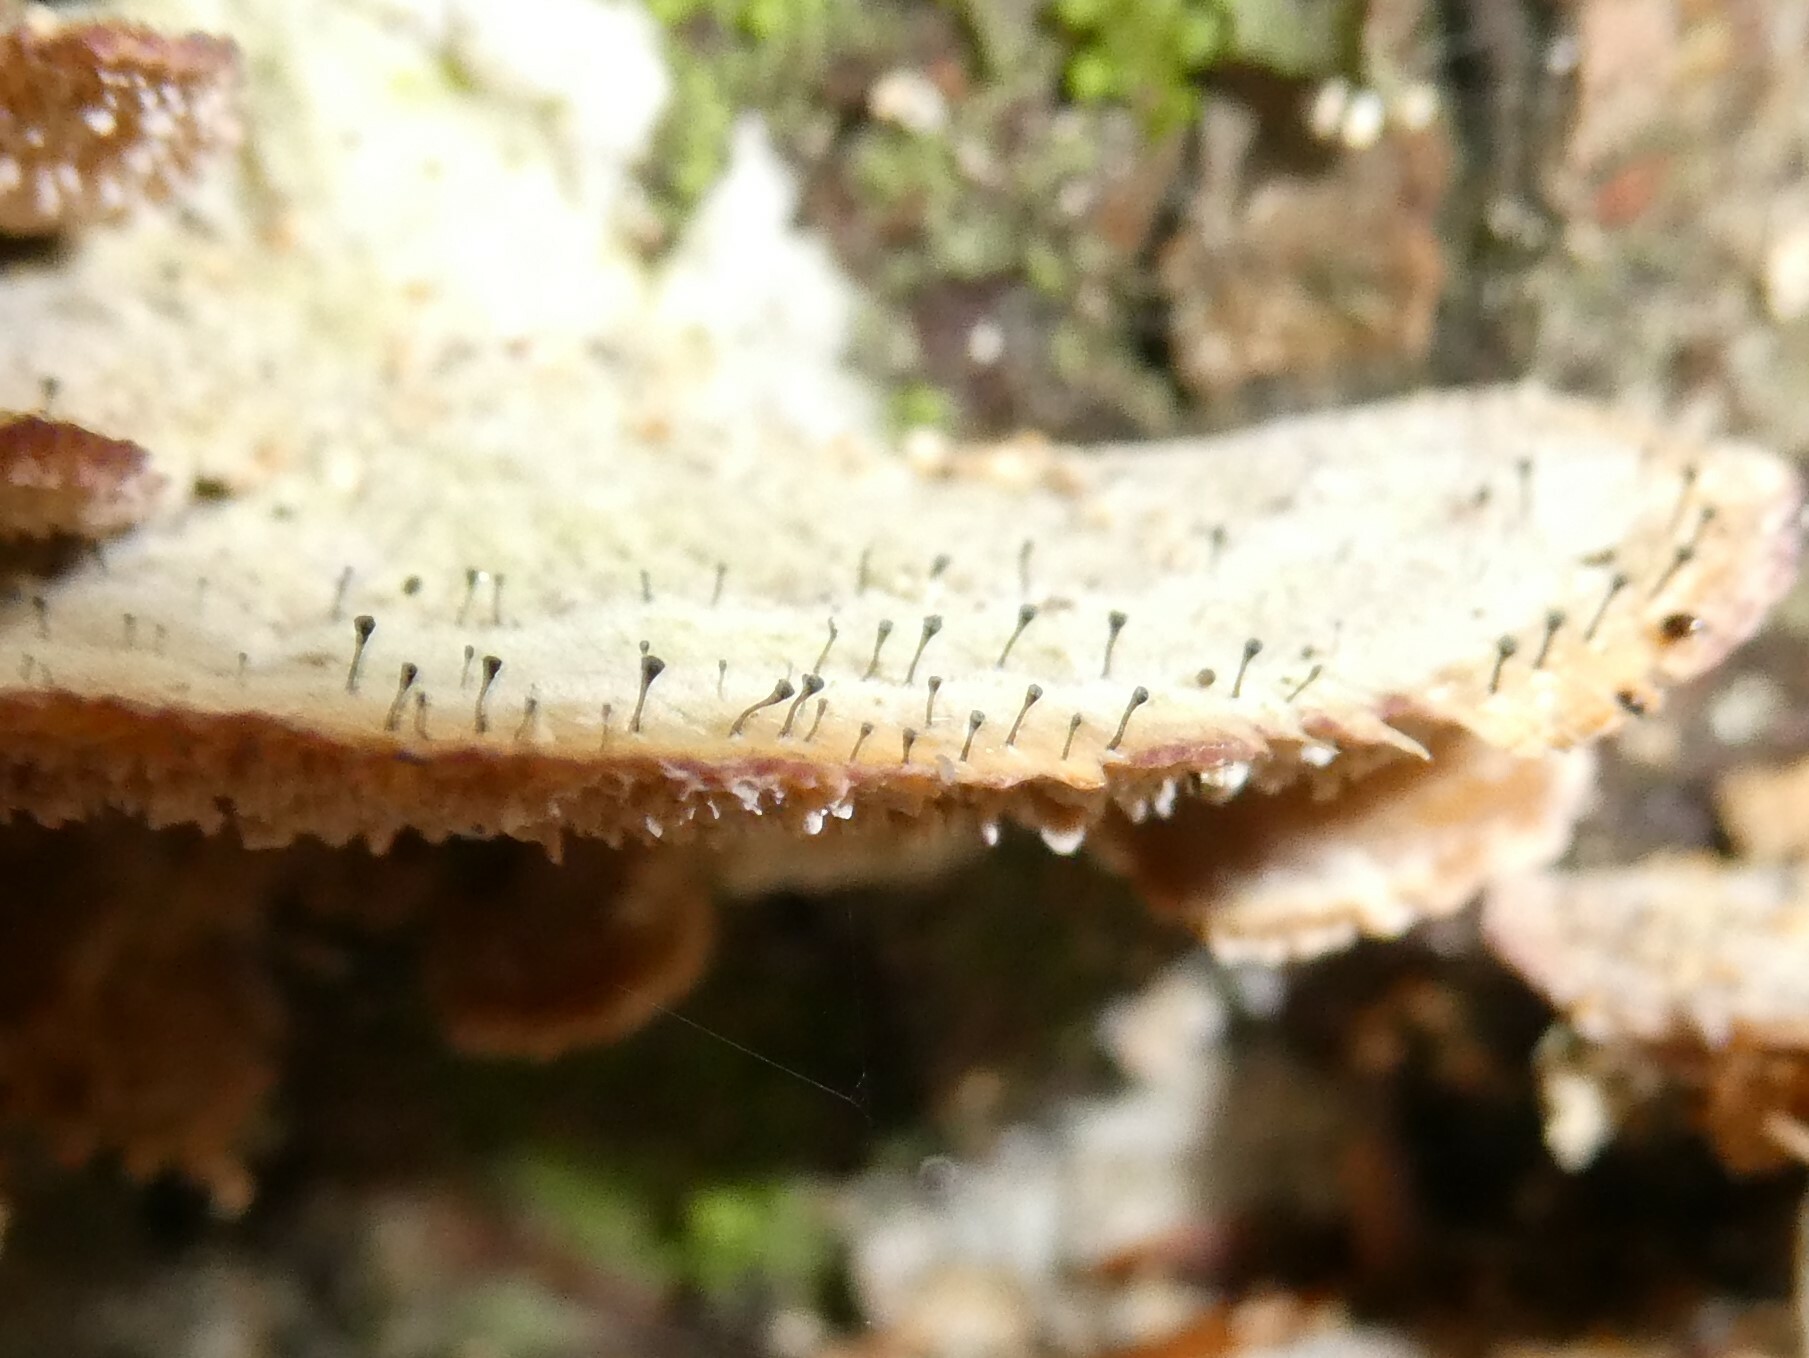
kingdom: Fungi
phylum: Ascomycota
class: Eurotiomycetes
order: Mycocaliciales
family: Mycocaliciaceae
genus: Phaeocalicium
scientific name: Phaeocalicium polyporaeum
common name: Fairy pins
